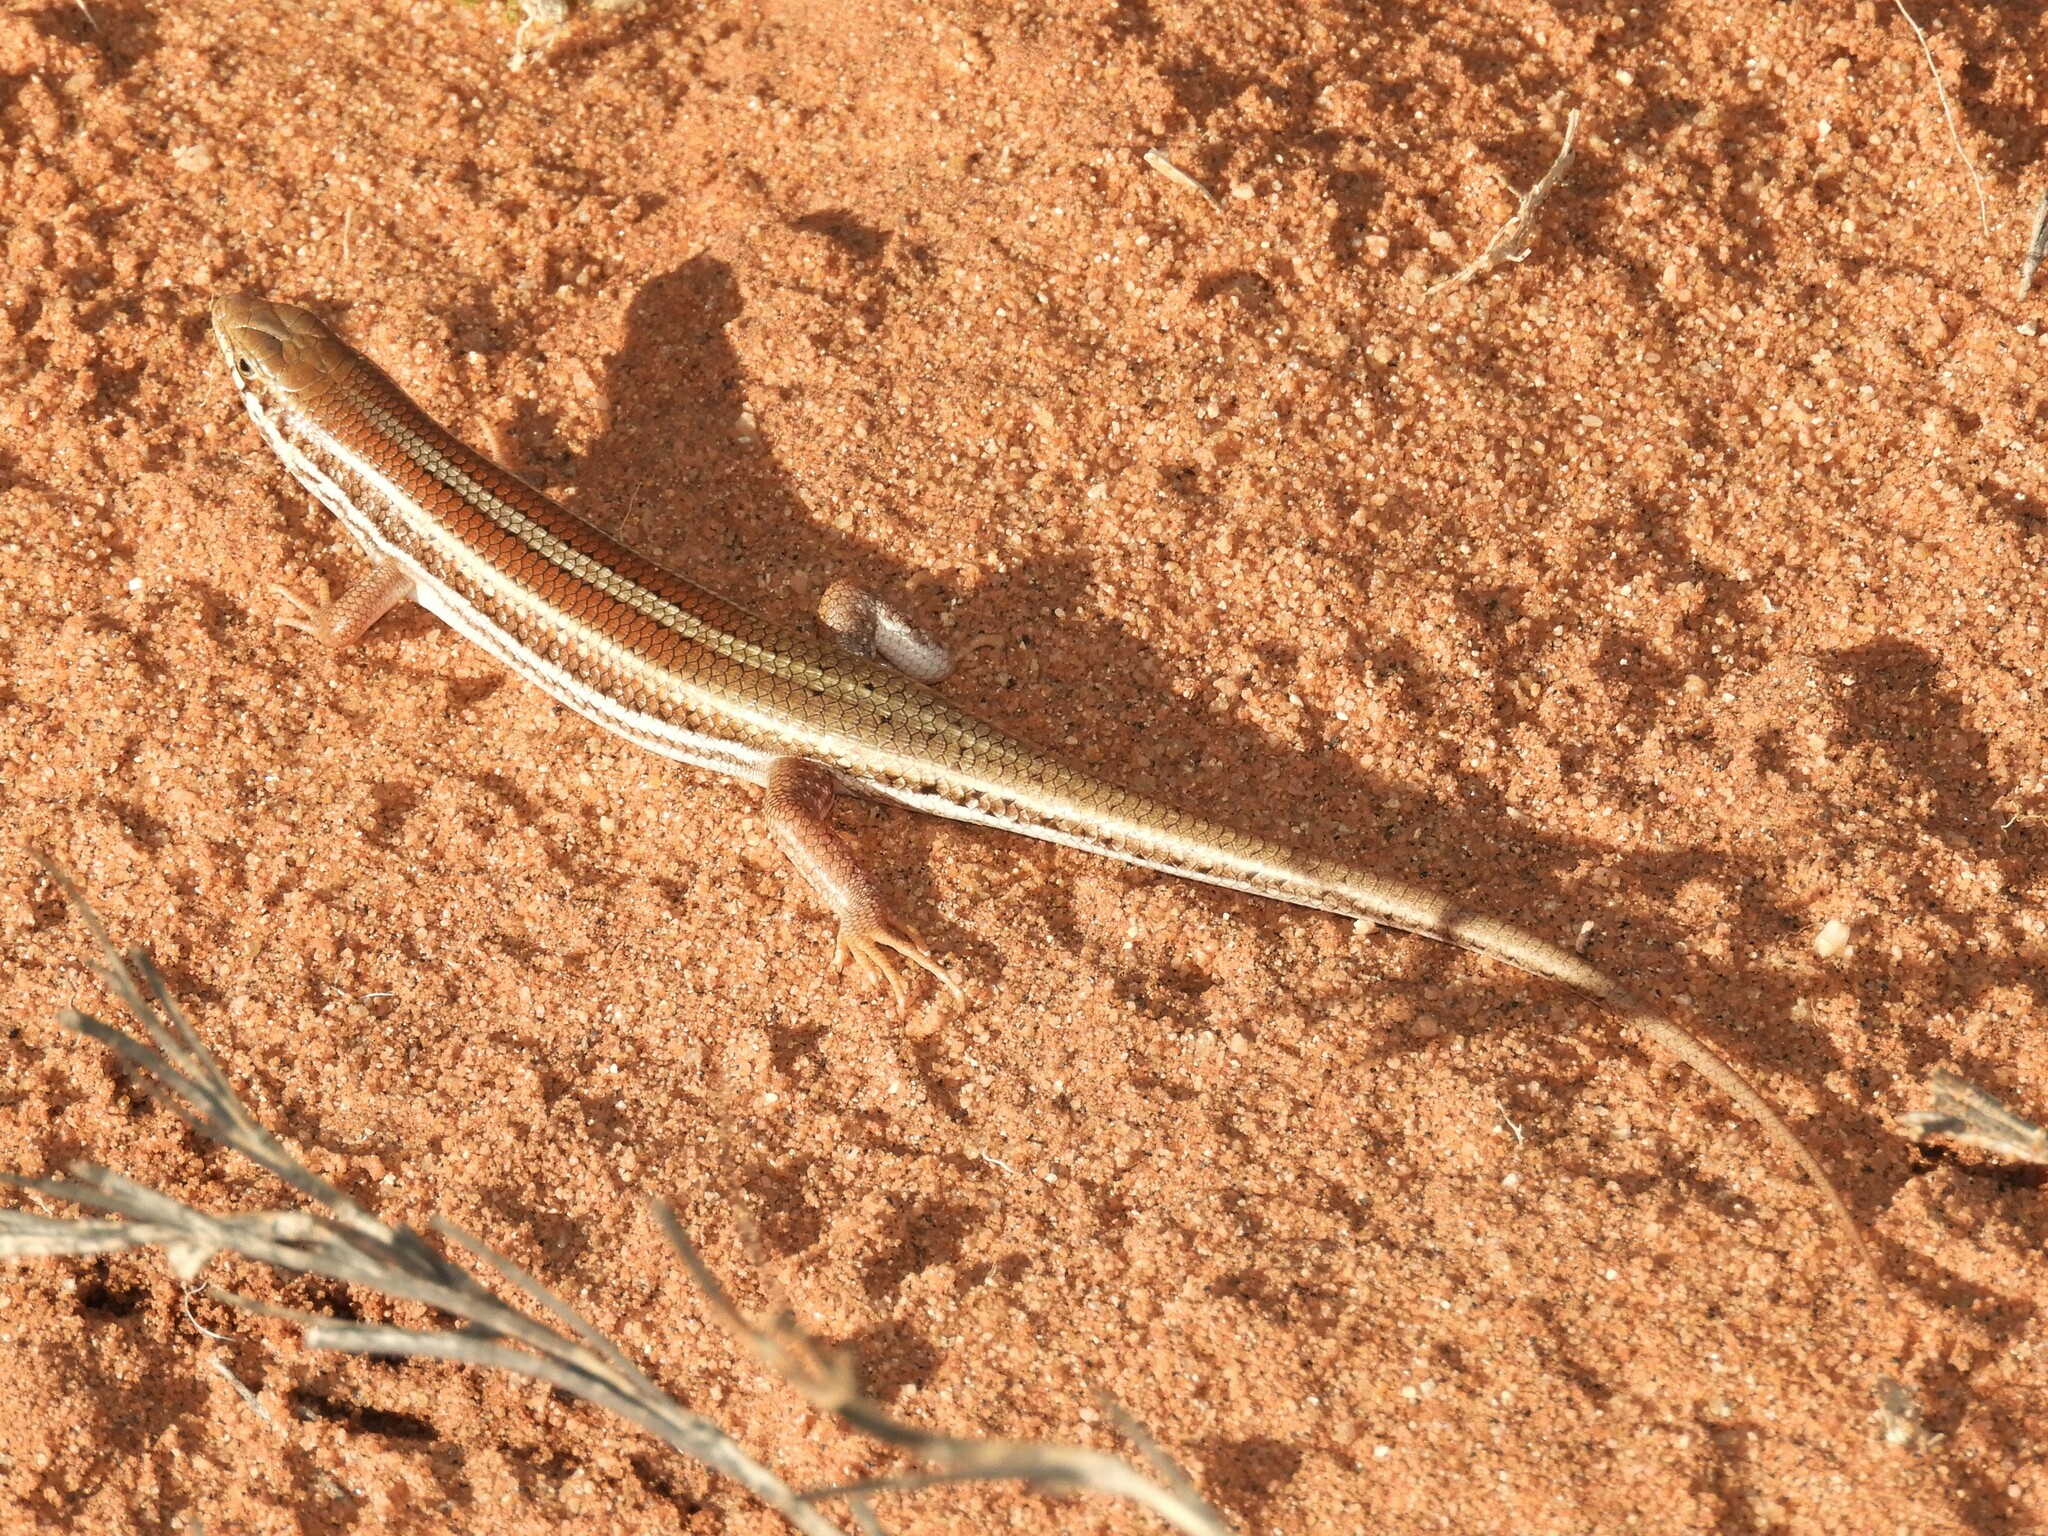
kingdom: Animalia
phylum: Chordata
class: Squamata
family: Scincidae
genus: Trachylepis
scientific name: Trachylepis occidentalis
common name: Western three-striped skink
